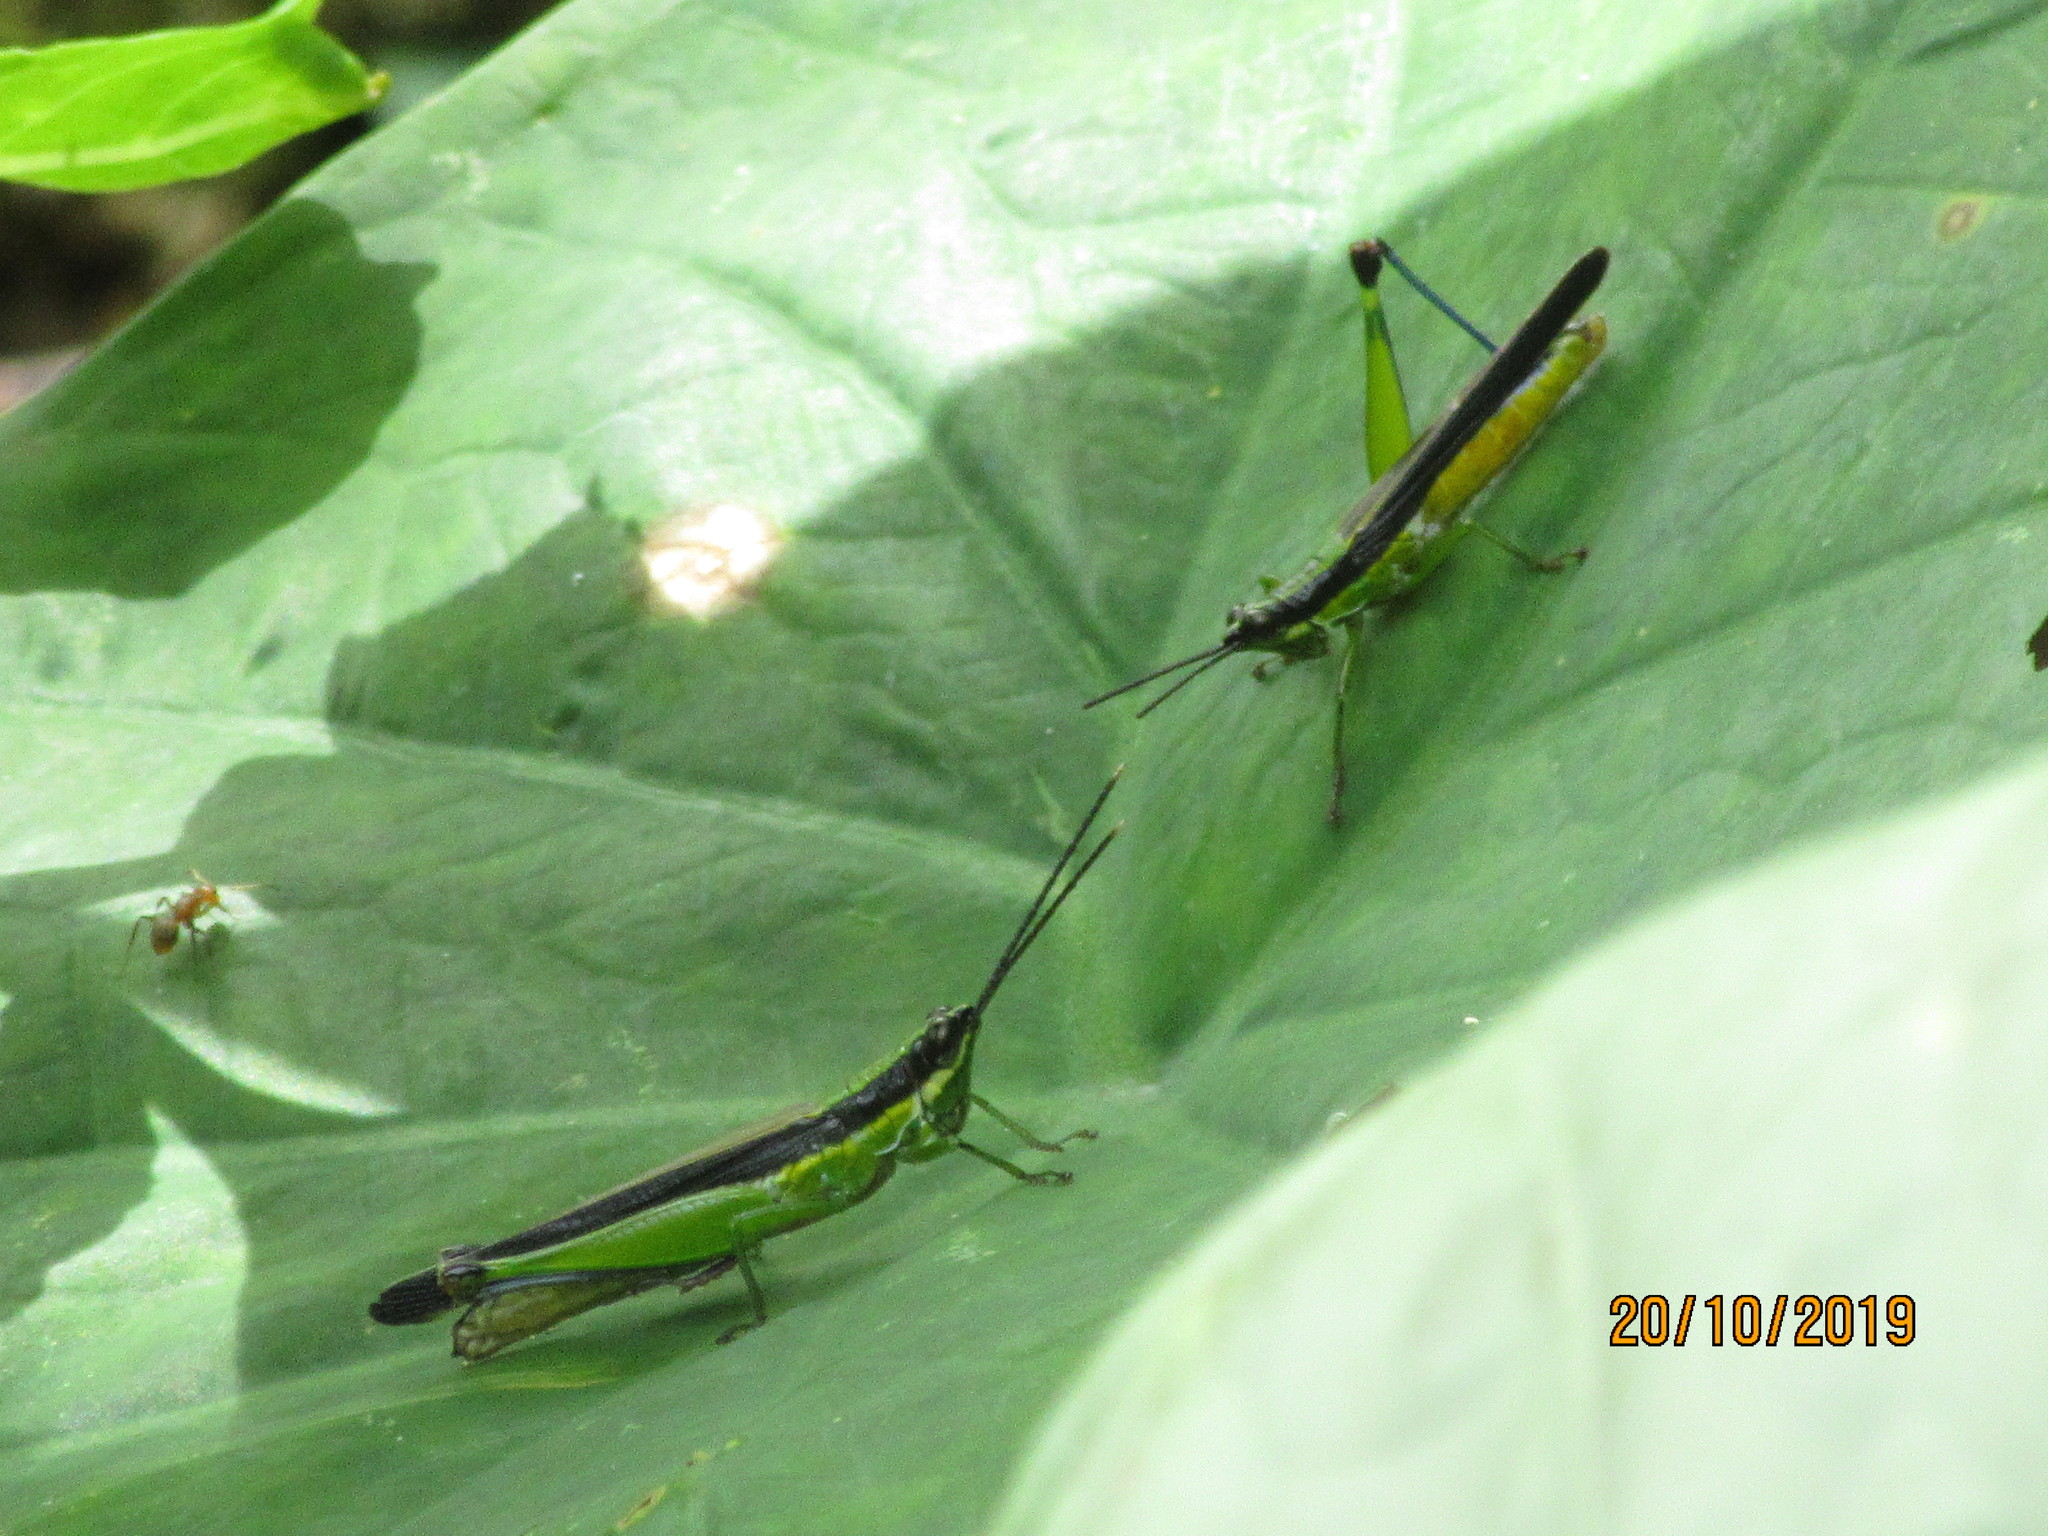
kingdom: Animalia
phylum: Arthropoda
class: Insecta
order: Orthoptera
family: Acrididae
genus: Stenopola
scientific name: Stenopola boliviana
